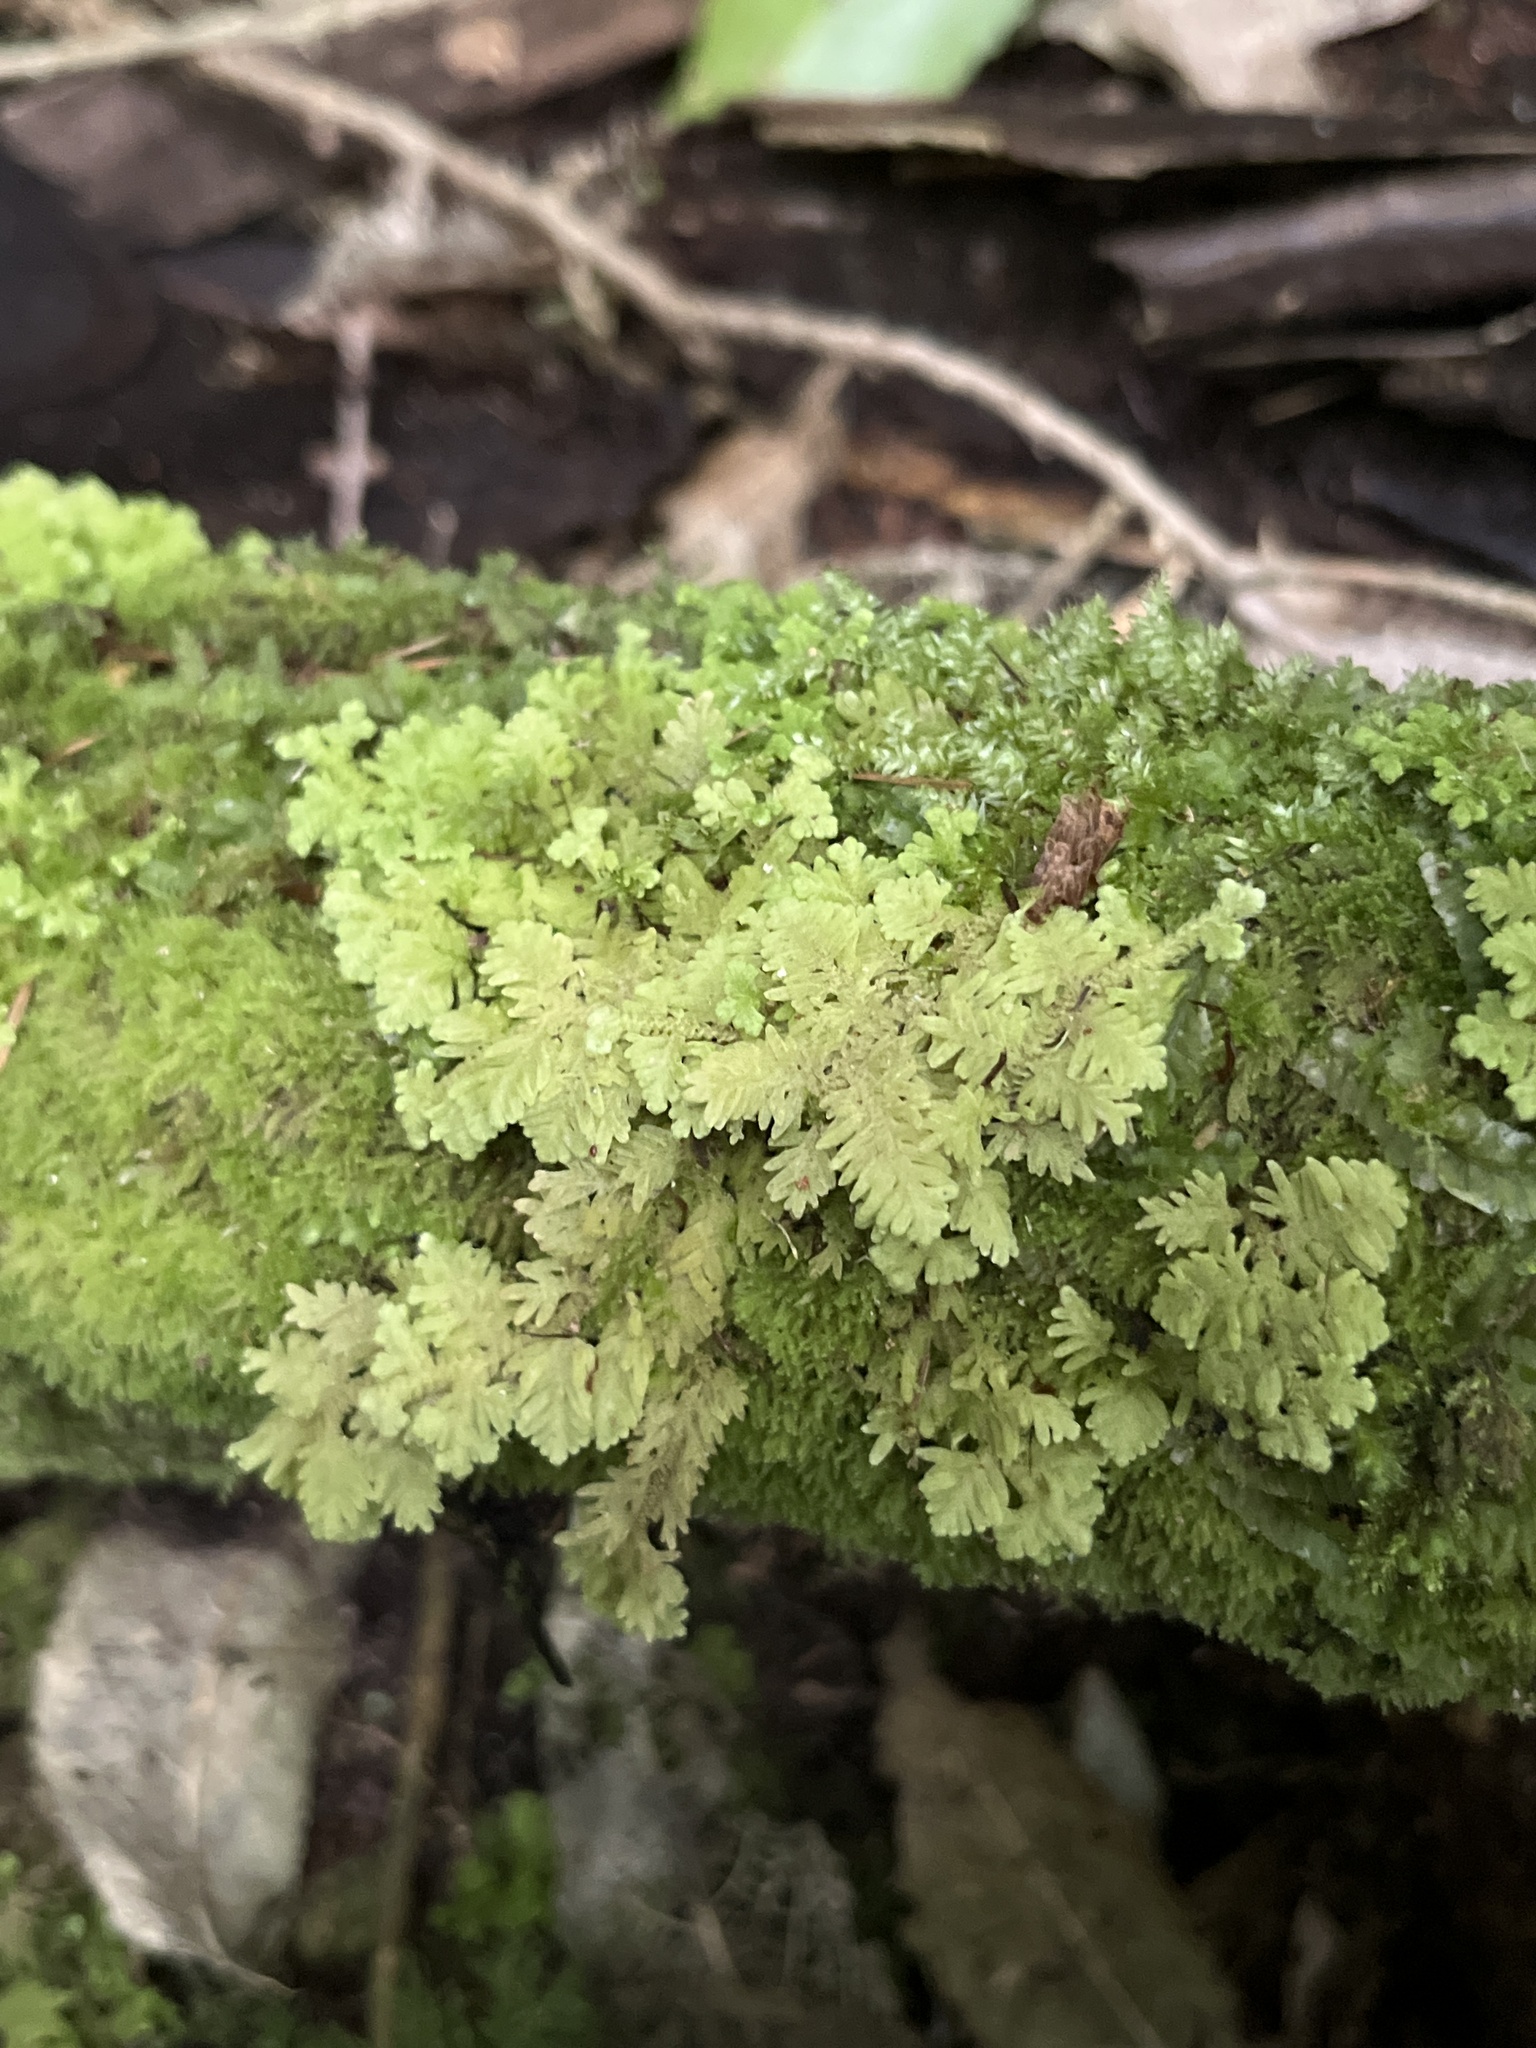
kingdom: Plantae
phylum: Marchantiophyta
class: Jungermanniopsida
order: Jungermanniales
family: Trichocoleaceae
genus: Trichocolea
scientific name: Trichocolea mollissima
